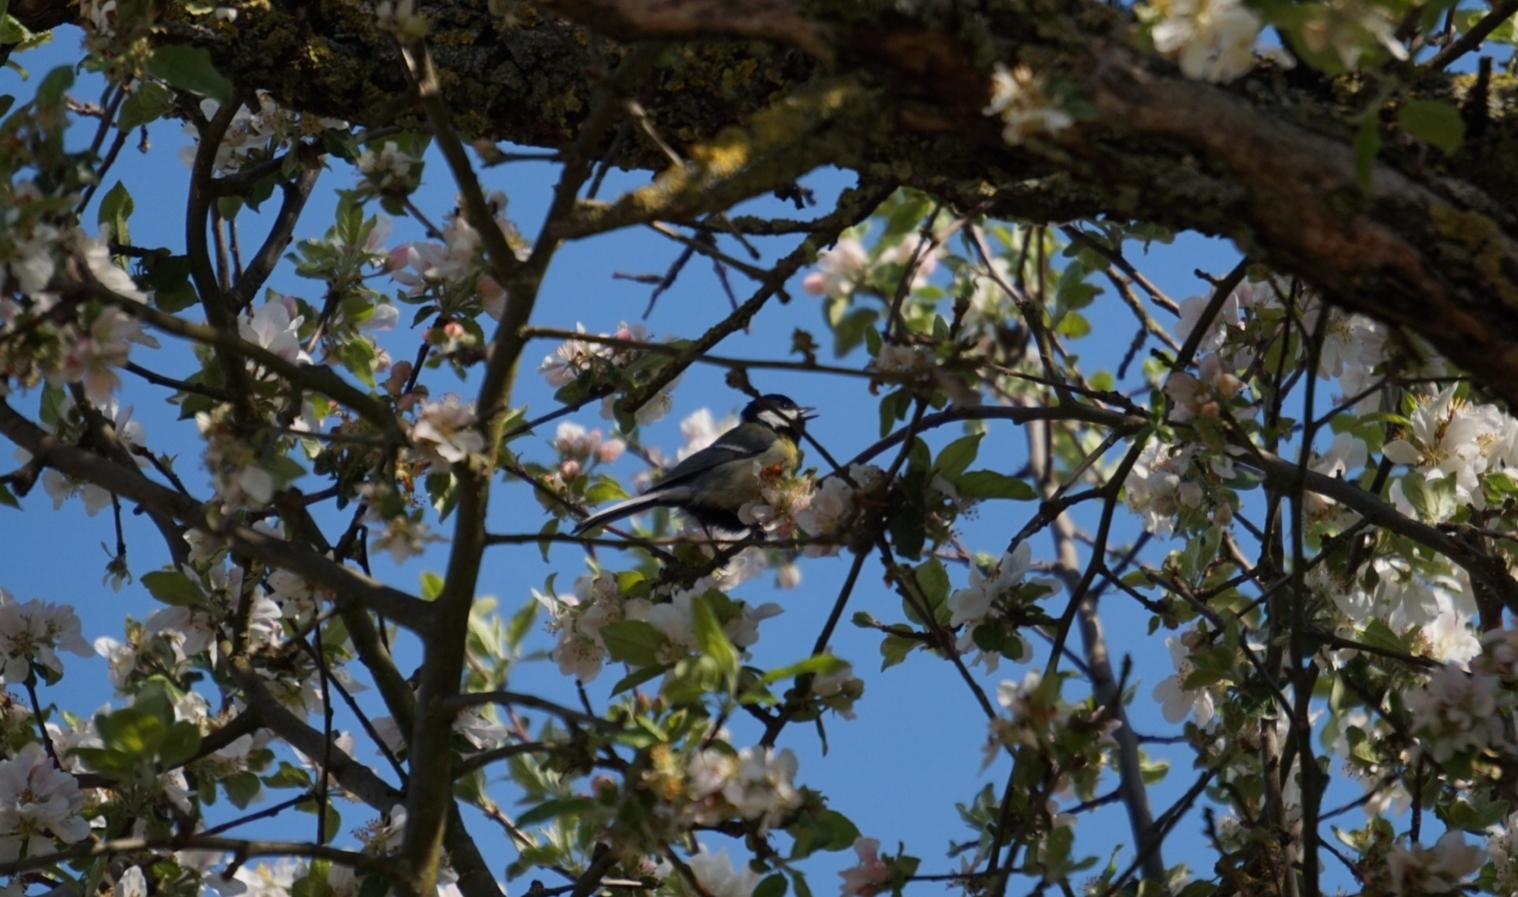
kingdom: Animalia
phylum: Chordata
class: Aves
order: Passeriformes
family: Paridae
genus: Parus
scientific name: Parus major
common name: Great tit
